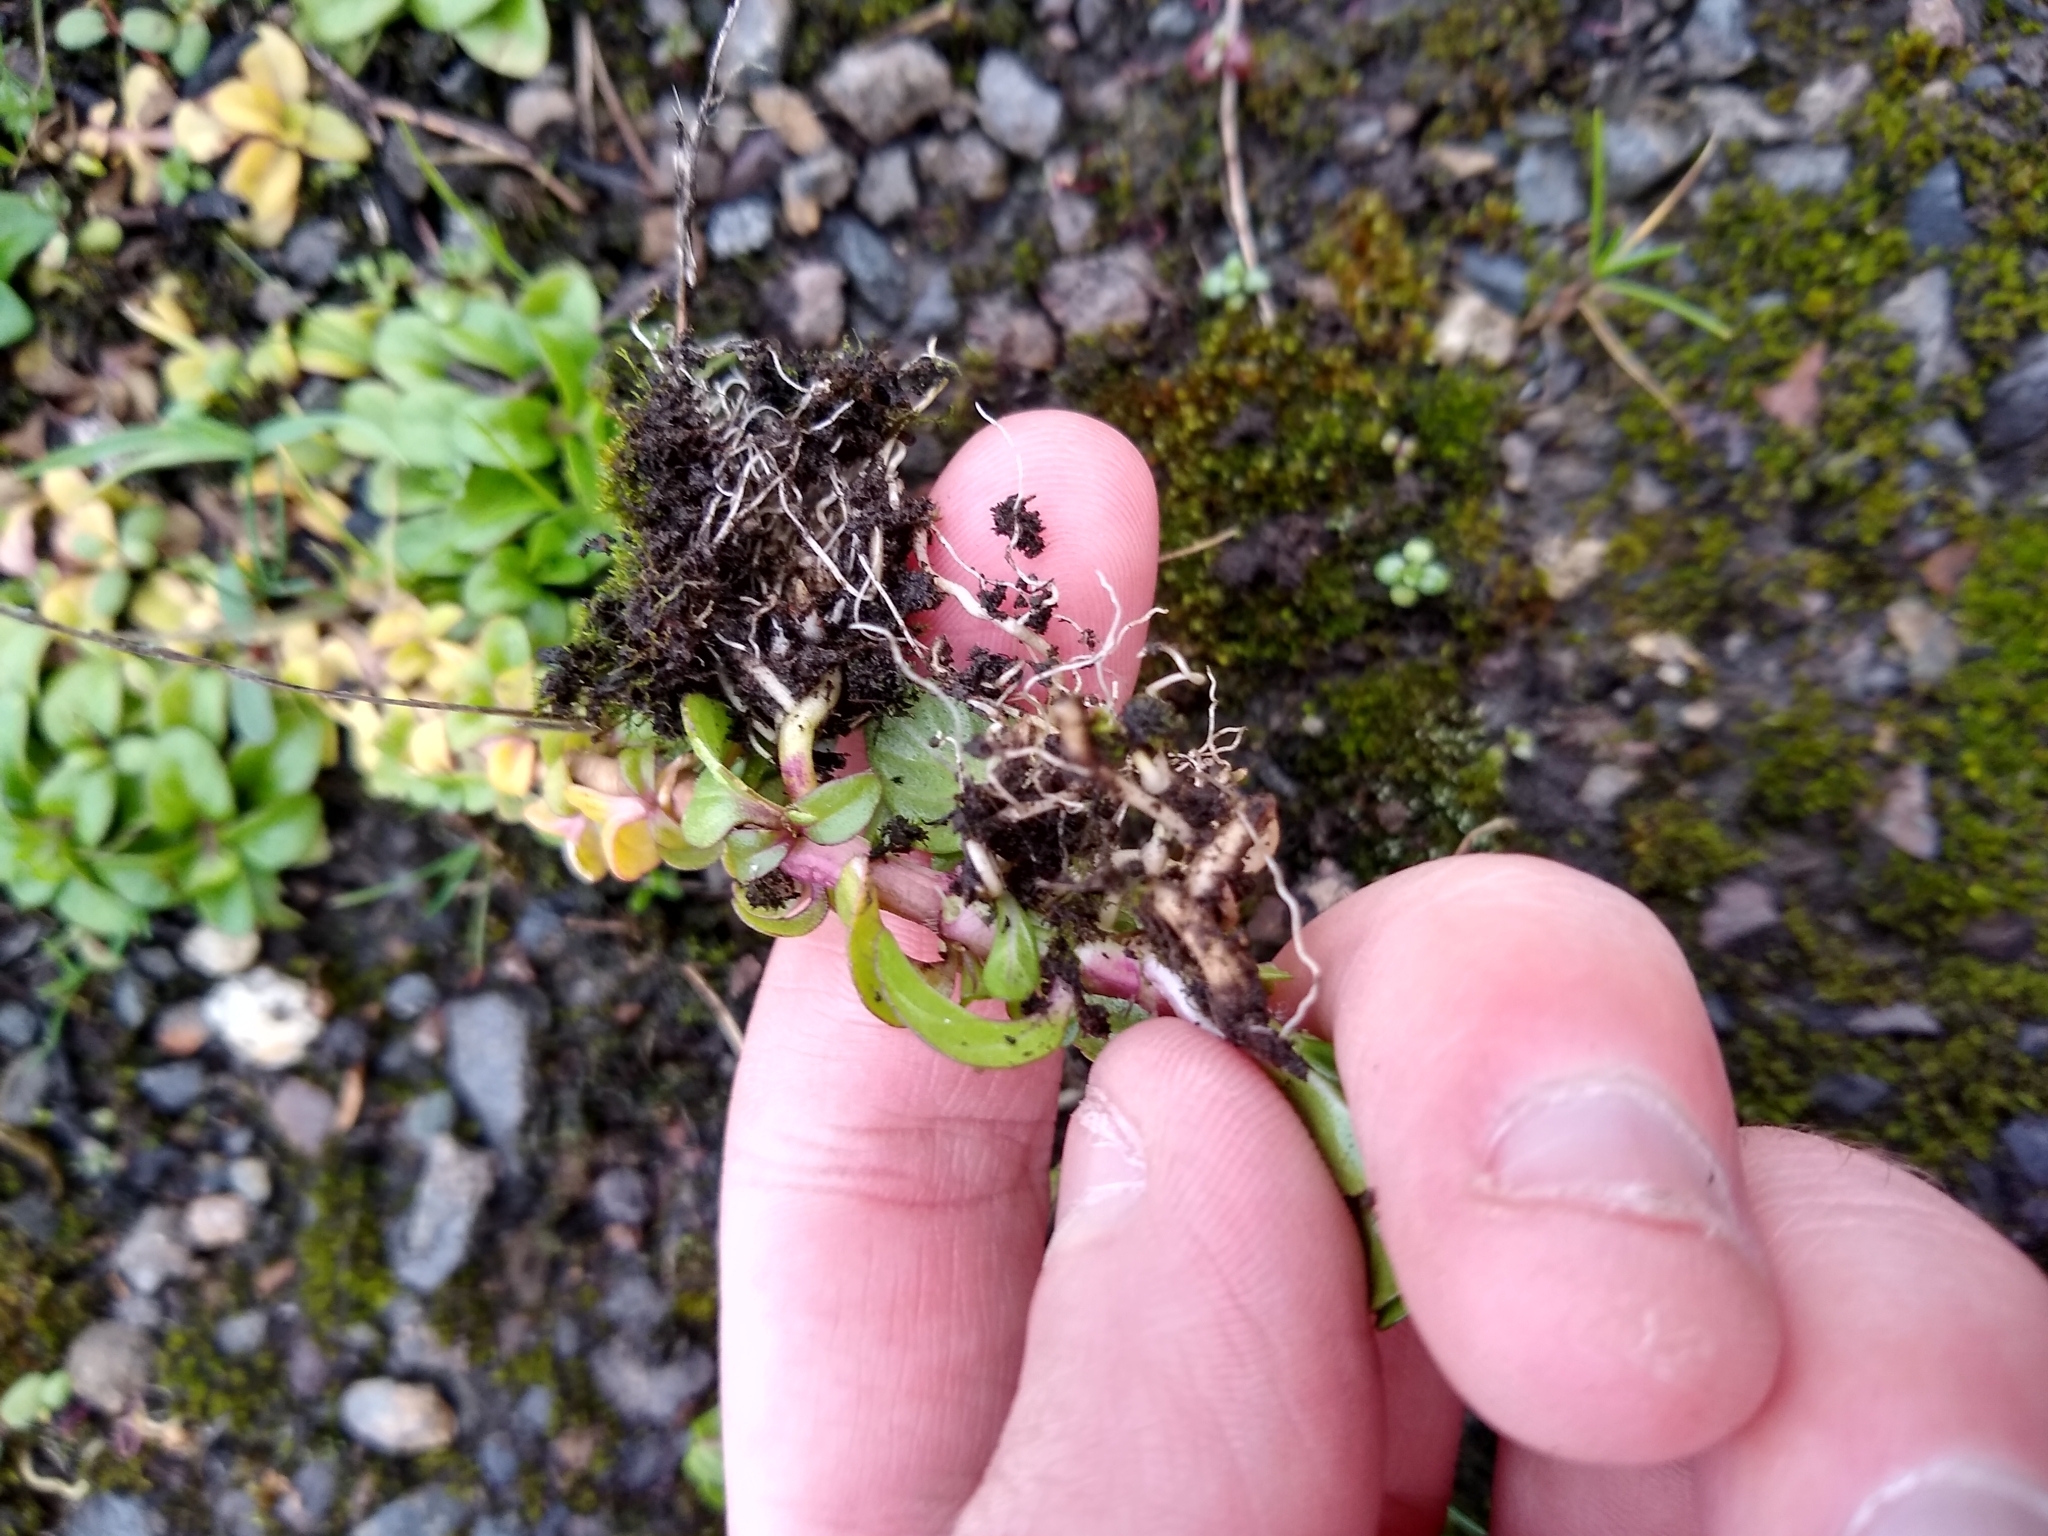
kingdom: Plantae
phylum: Tracheophyta
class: Magnoliopsida
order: Lamiales
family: Lamiaceae
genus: Mentha
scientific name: Mentha pulegium
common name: Pennyroyal
